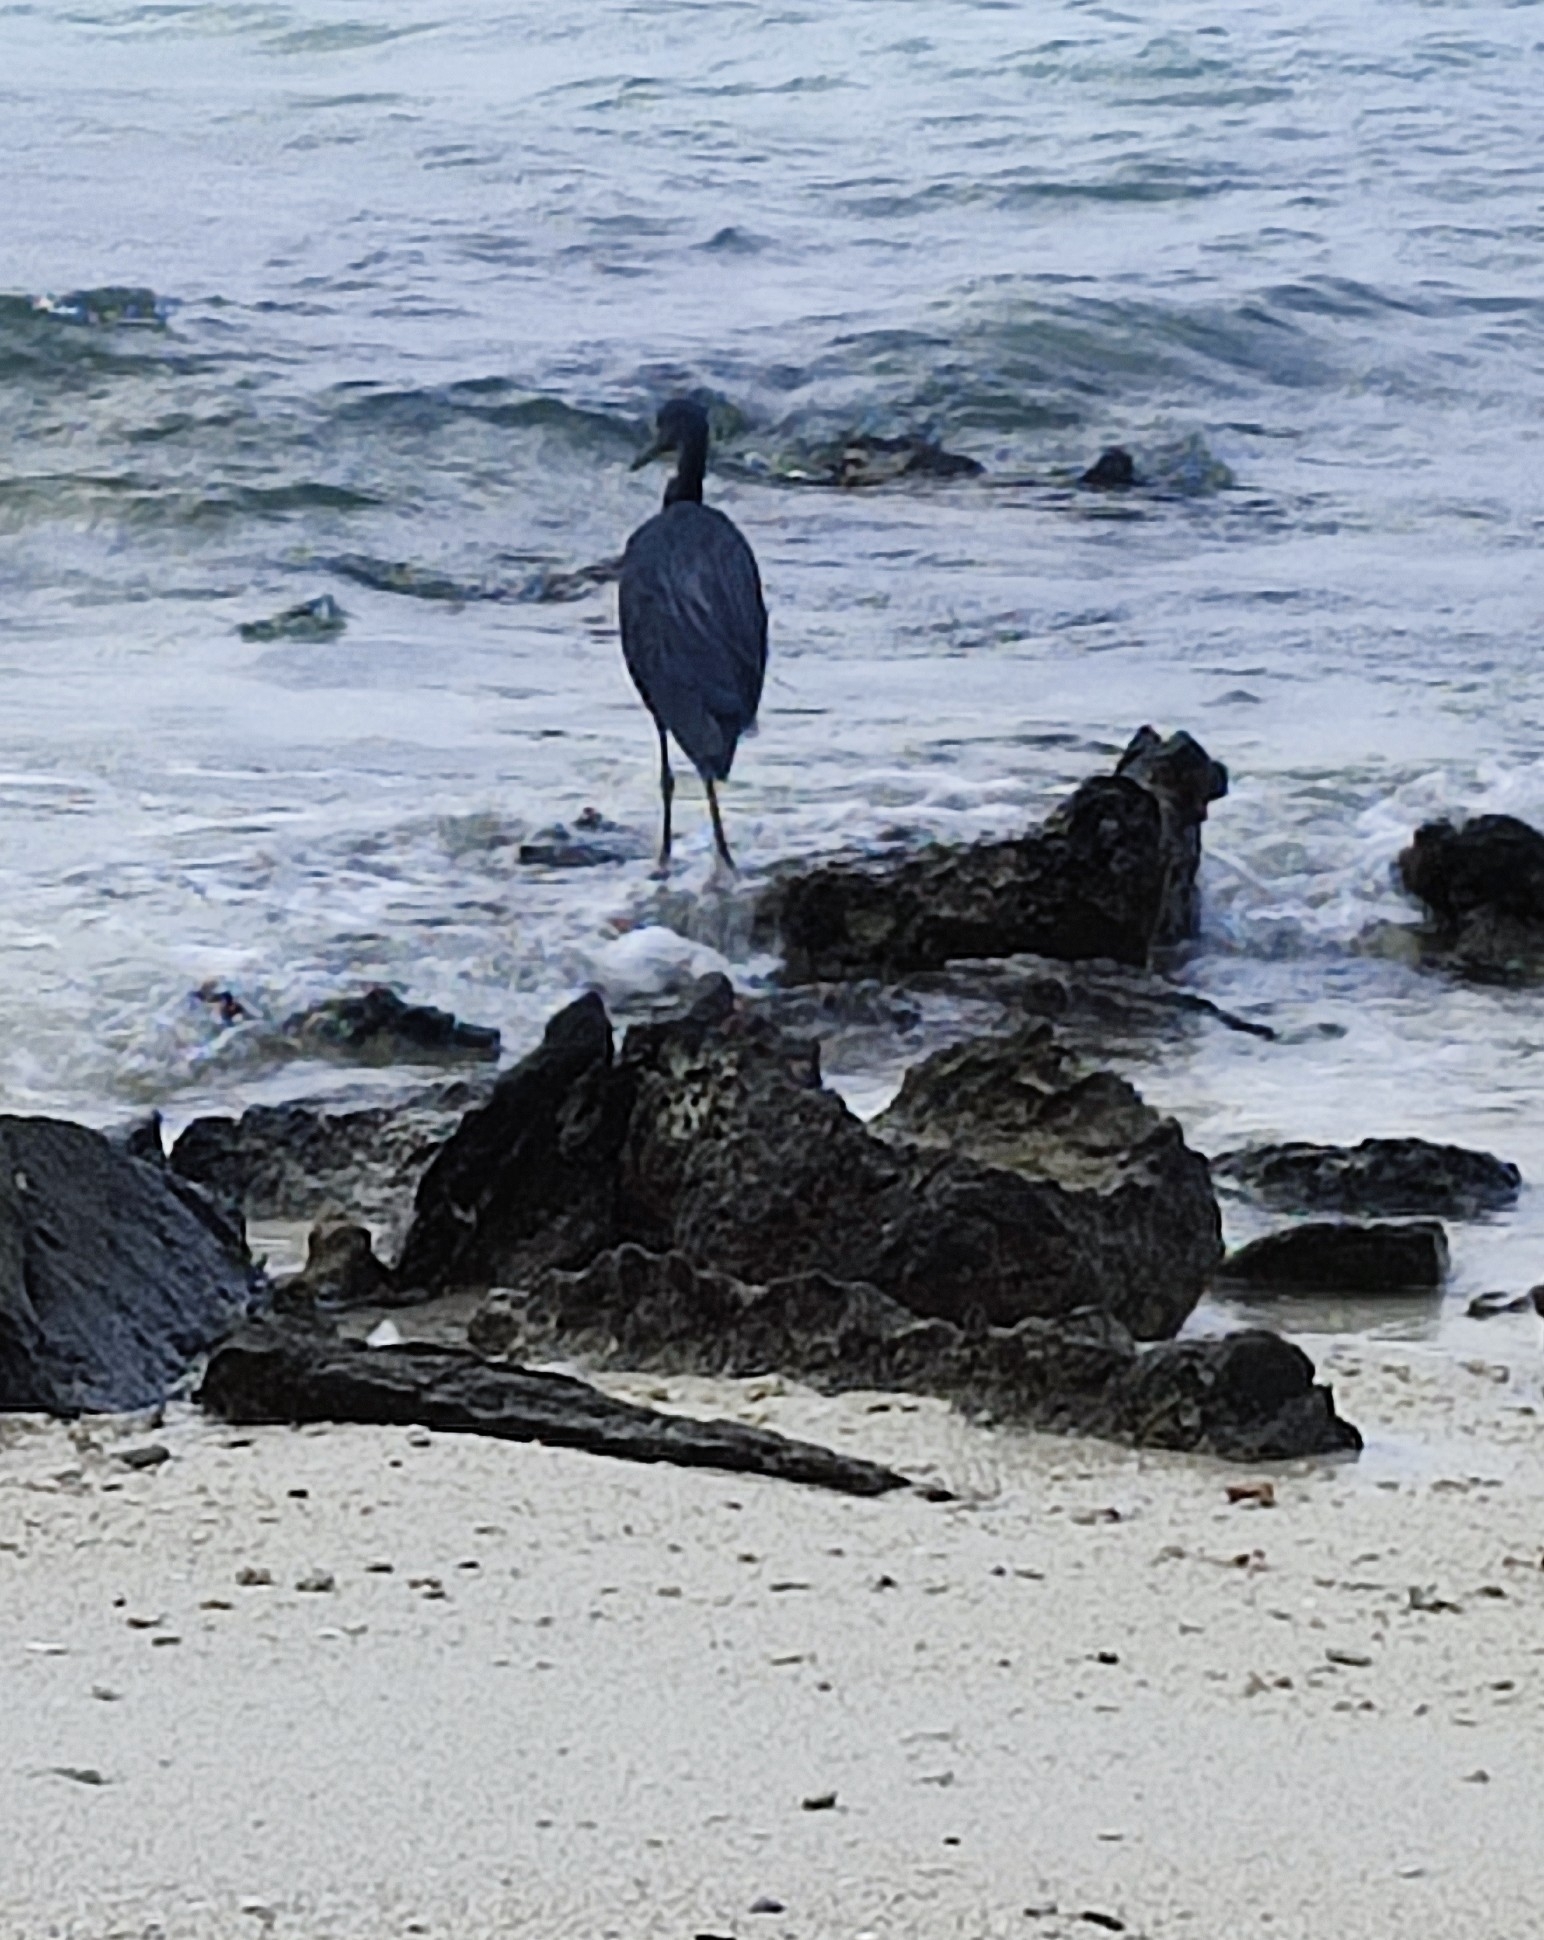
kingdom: Animalia
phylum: Chordata
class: Aves
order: Pelecaniformes
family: Ardeidae
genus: Egretta
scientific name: Egretta sacra
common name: Pacific reef heron
